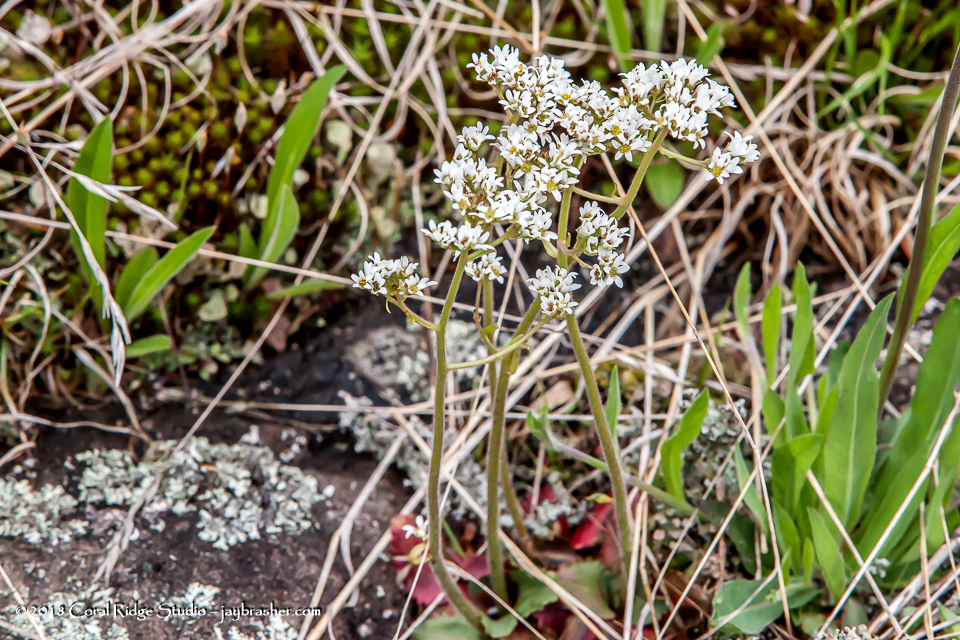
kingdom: Plantae
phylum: Tracheophyta
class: Magnoliopsida
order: Saxifragales
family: Saxifragaceae
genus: Micranthes
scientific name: Micranthes virginiensis
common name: Early saxifrage
